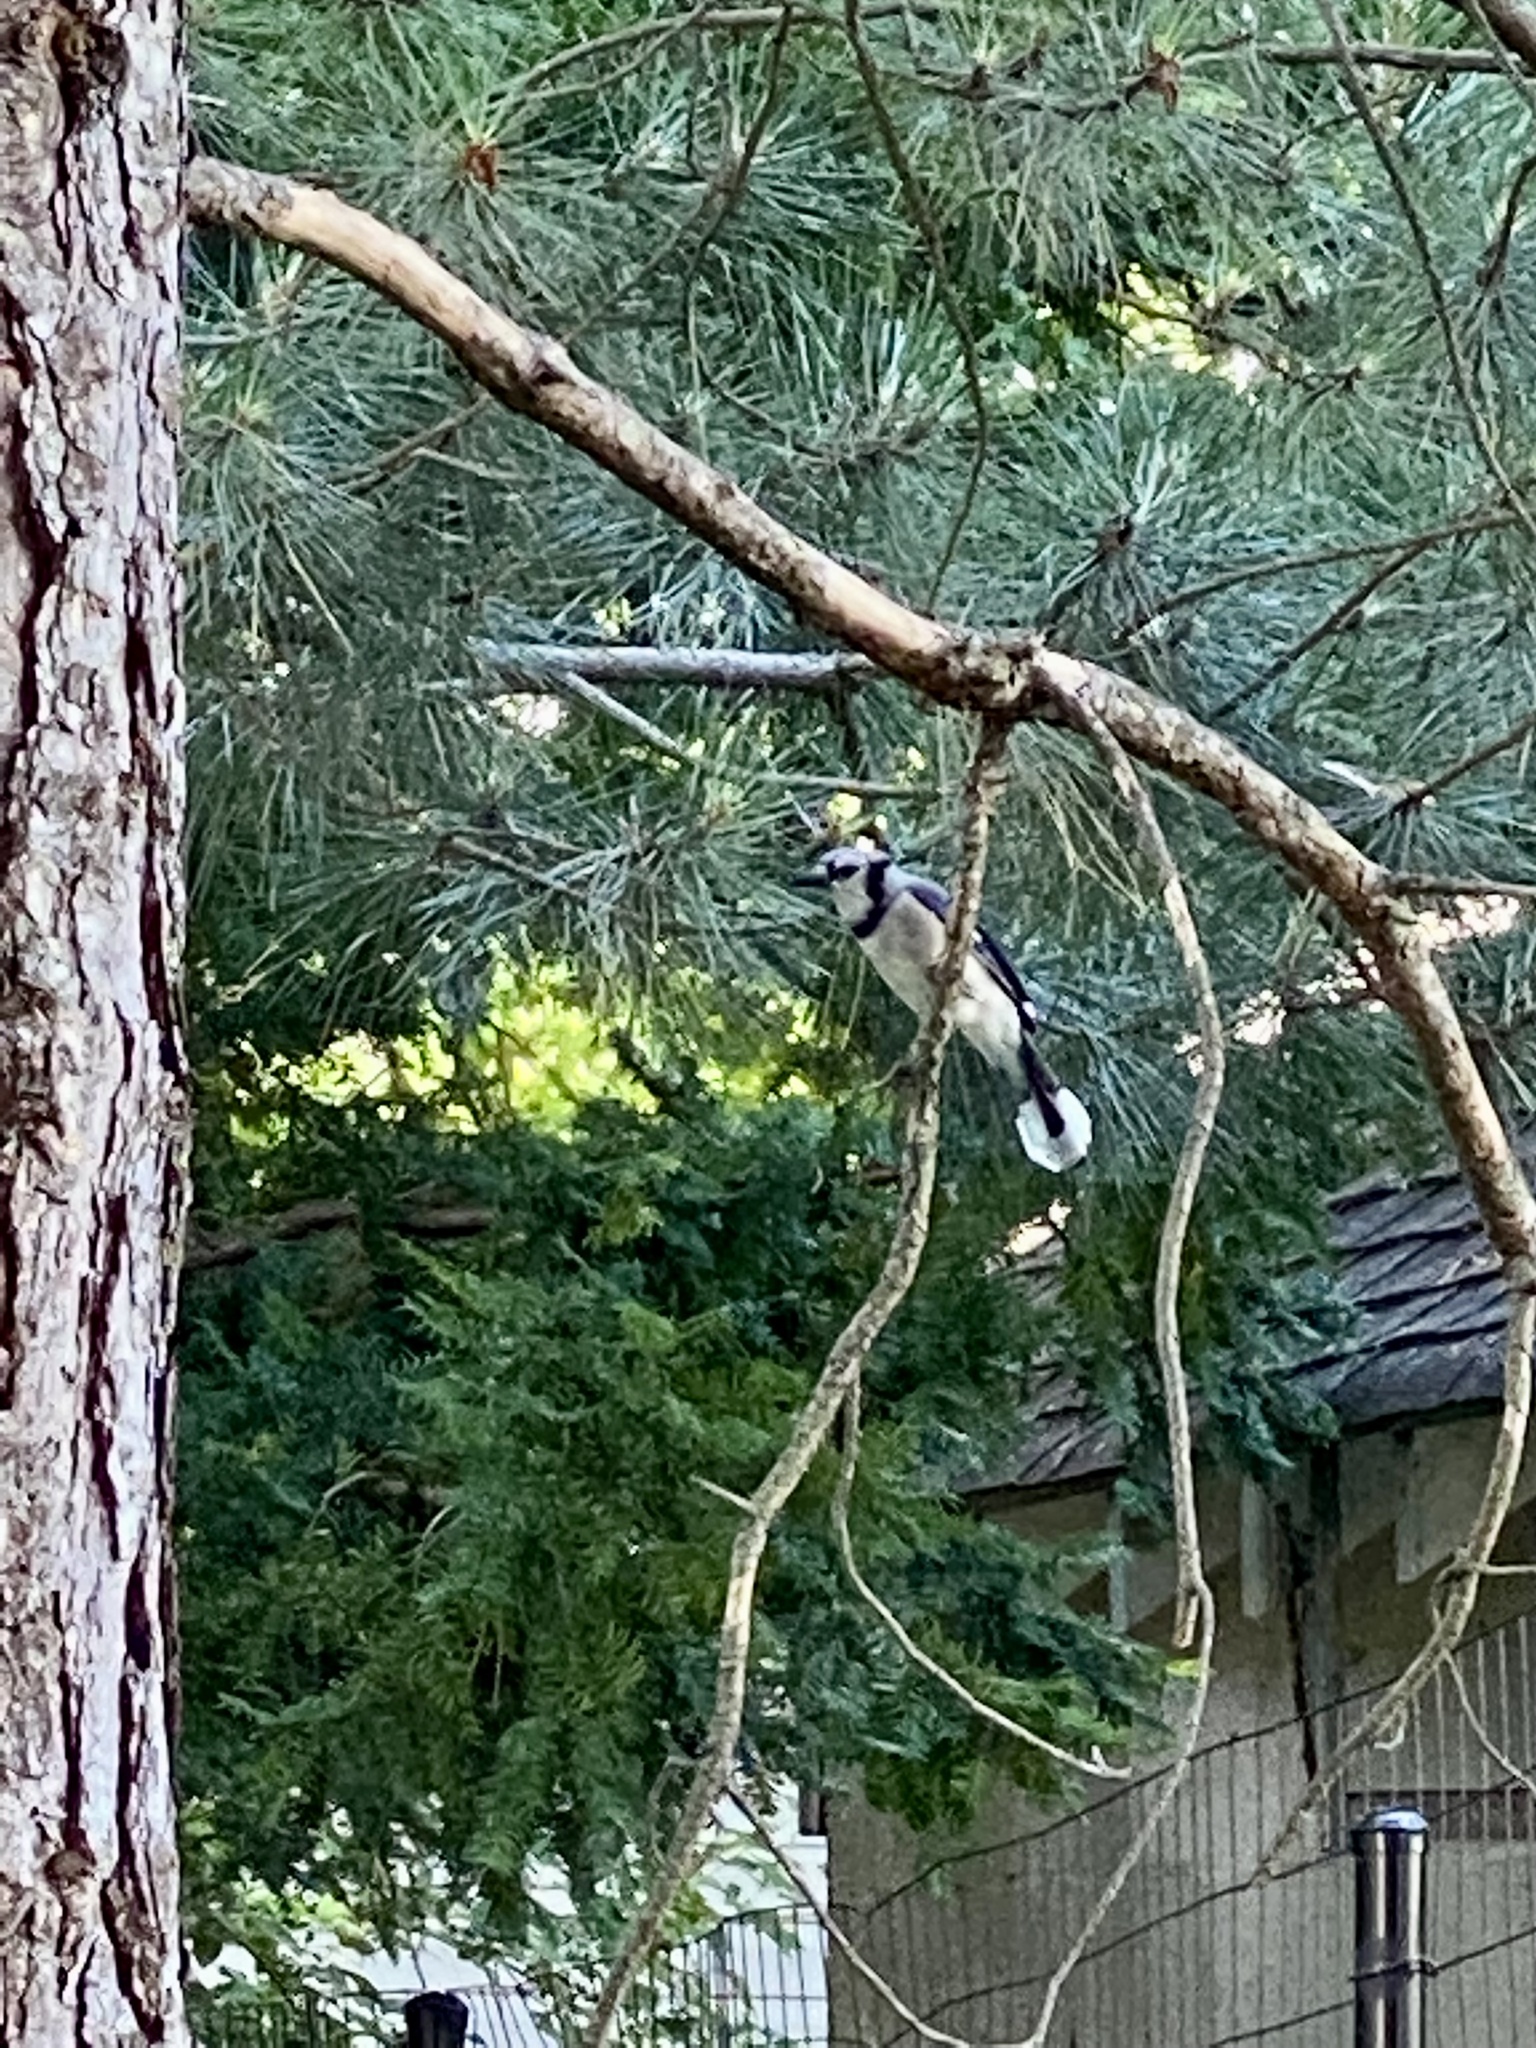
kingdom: Animalia
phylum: Chordata
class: Aves
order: Passeriformes
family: Corvidae
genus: Cyanocitta
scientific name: Cyanocitta cristata
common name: Blue jay
